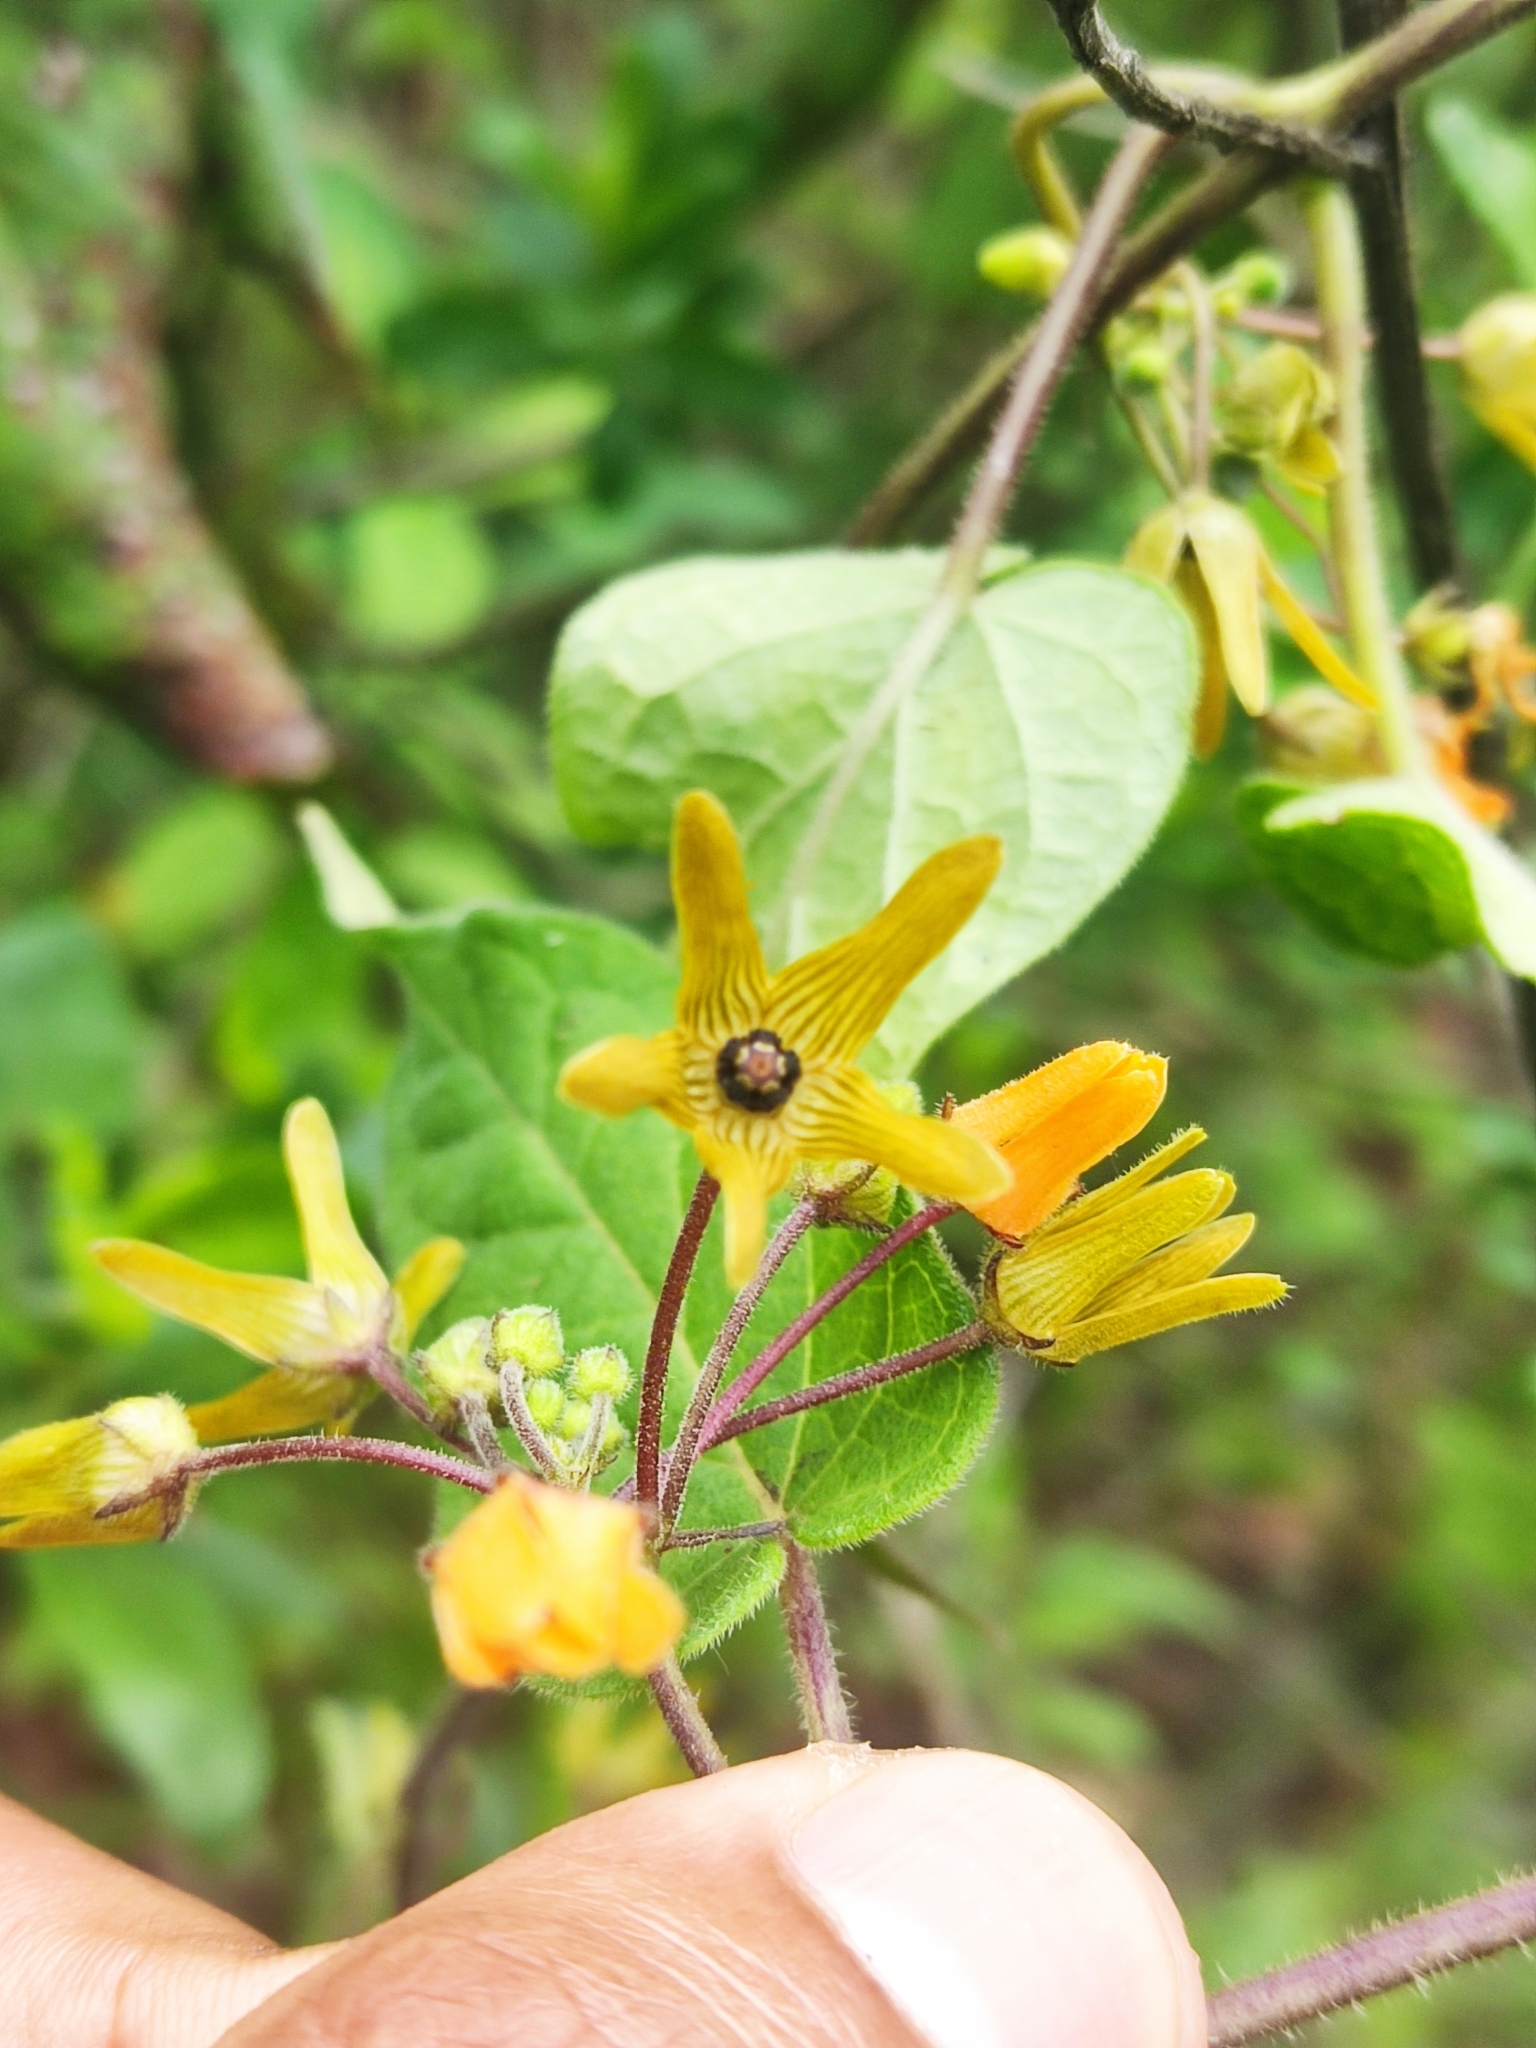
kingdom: Plantae
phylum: Tracheophyta
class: Magnoliopsida
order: Gentianales
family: Apocynaceae
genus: Matelea
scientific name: Matelea chrysantha
